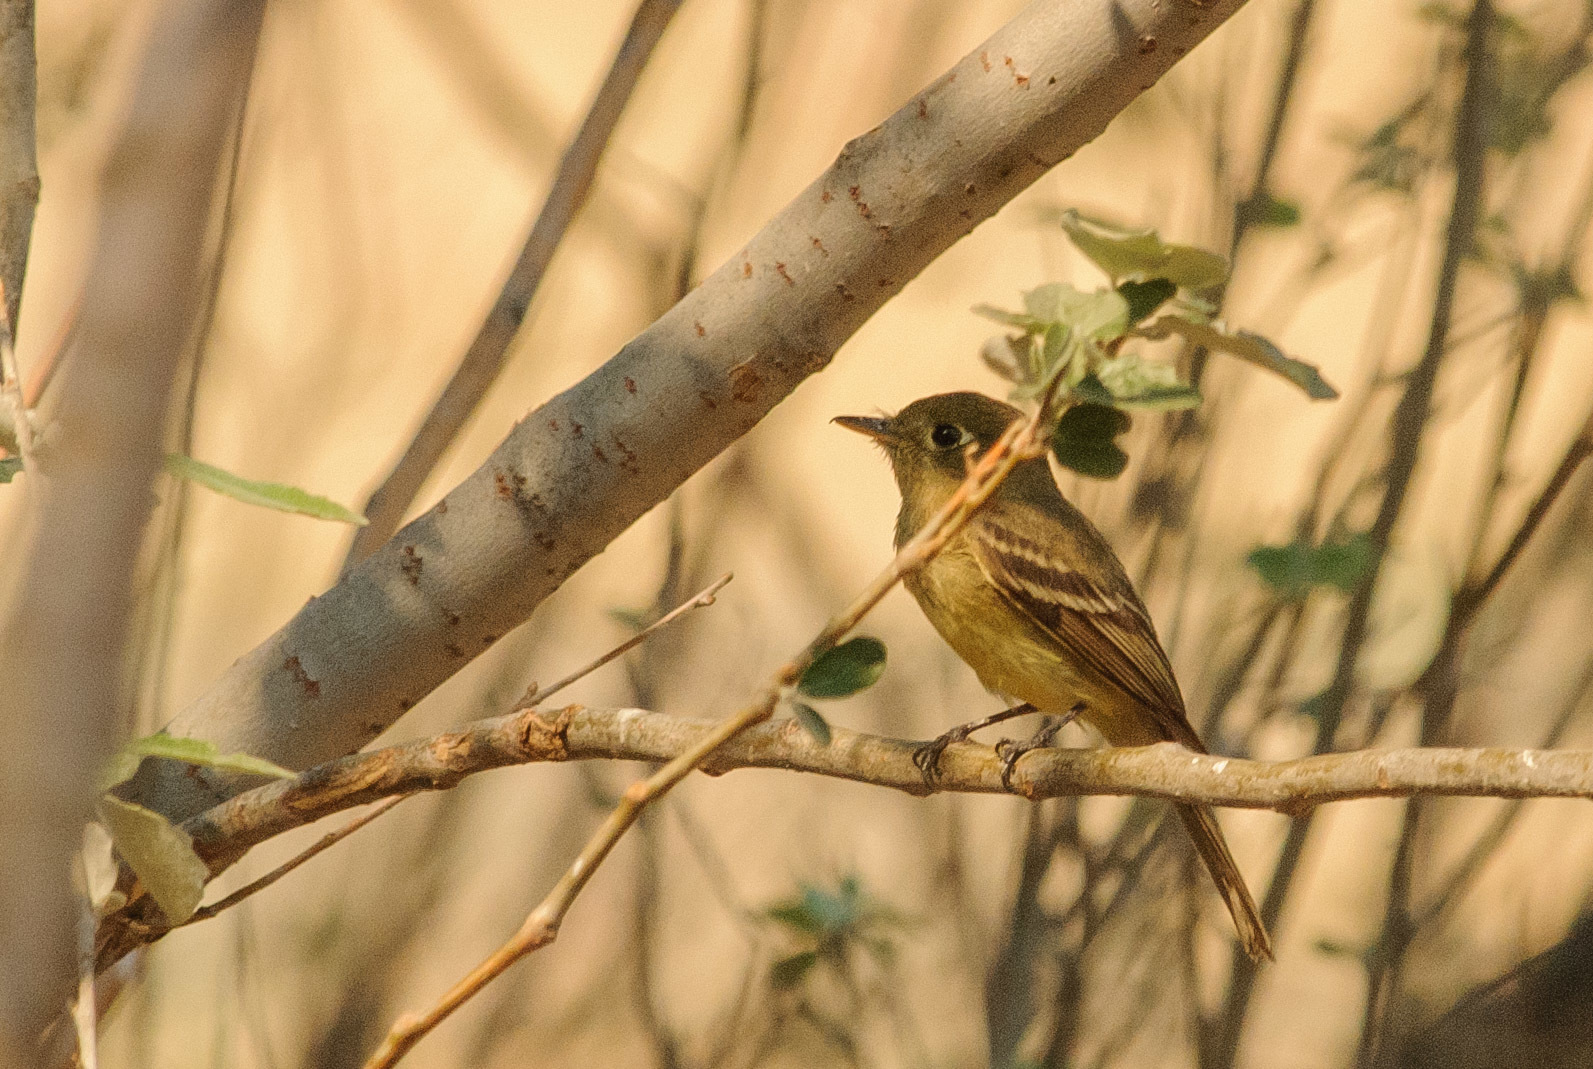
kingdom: Animalia
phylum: Chordata
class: Aves
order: Passeriformes
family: Tyrannidae
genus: Empidonax
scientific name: Empidonax difficilis
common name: Pacific-slope flycatcher
